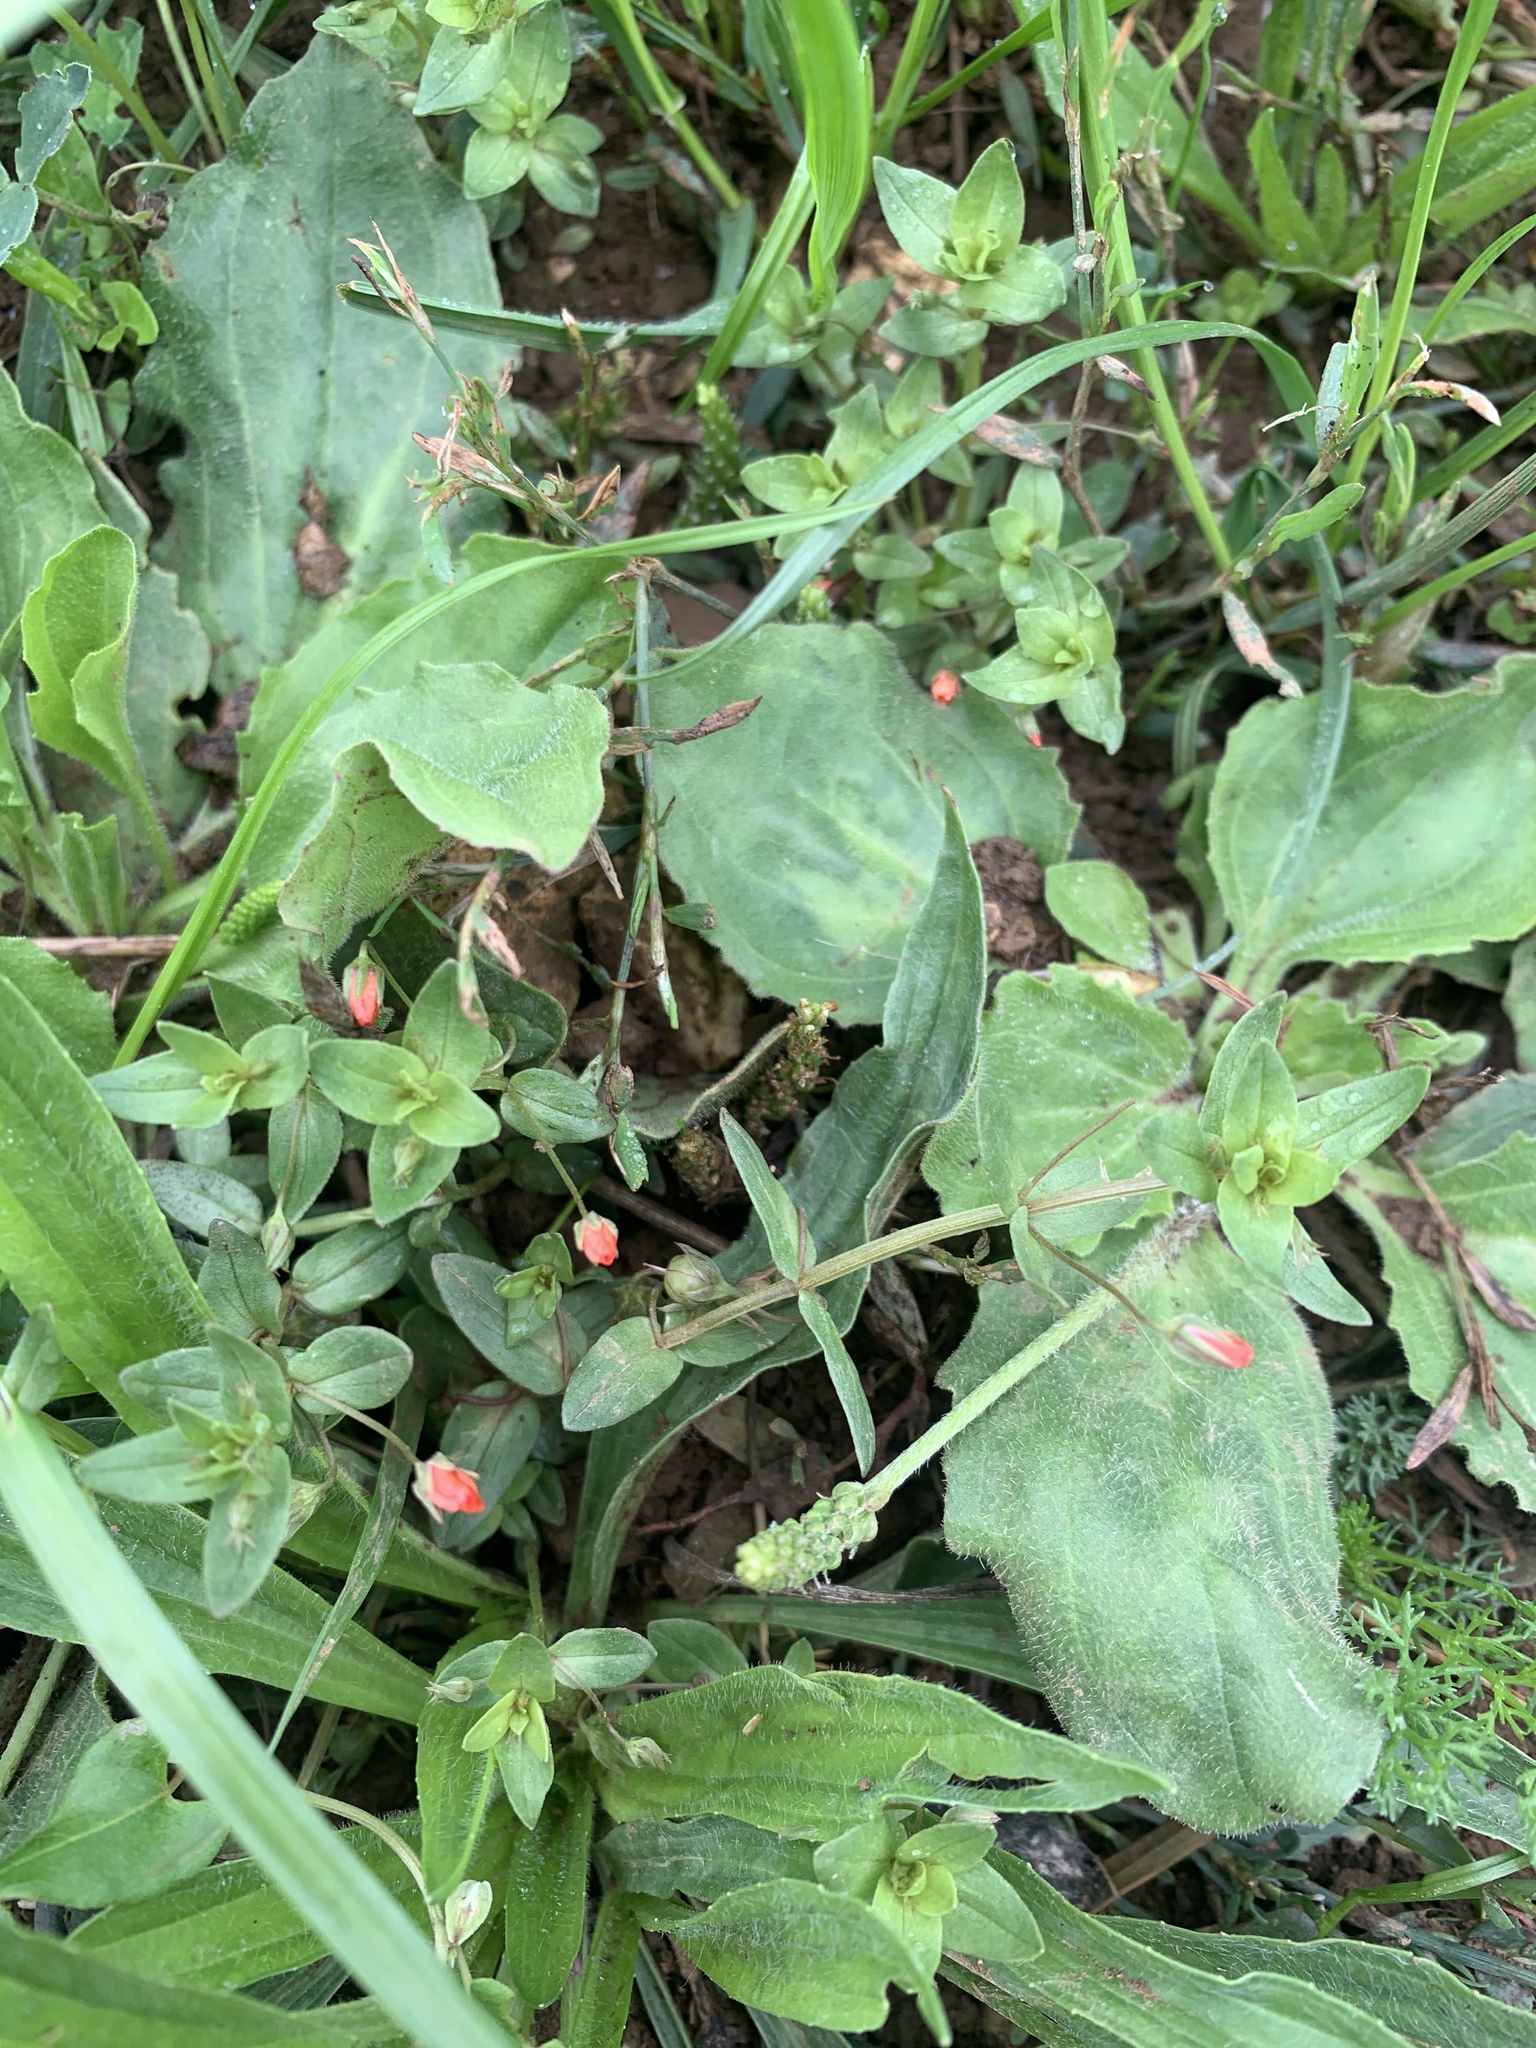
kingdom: Plantae
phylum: Tracheophyta
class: Magnoliopsida
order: Ericales
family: Primulaceae
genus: Lysimachia
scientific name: Lysimachia arvensis
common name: Scarlet pimpernel
